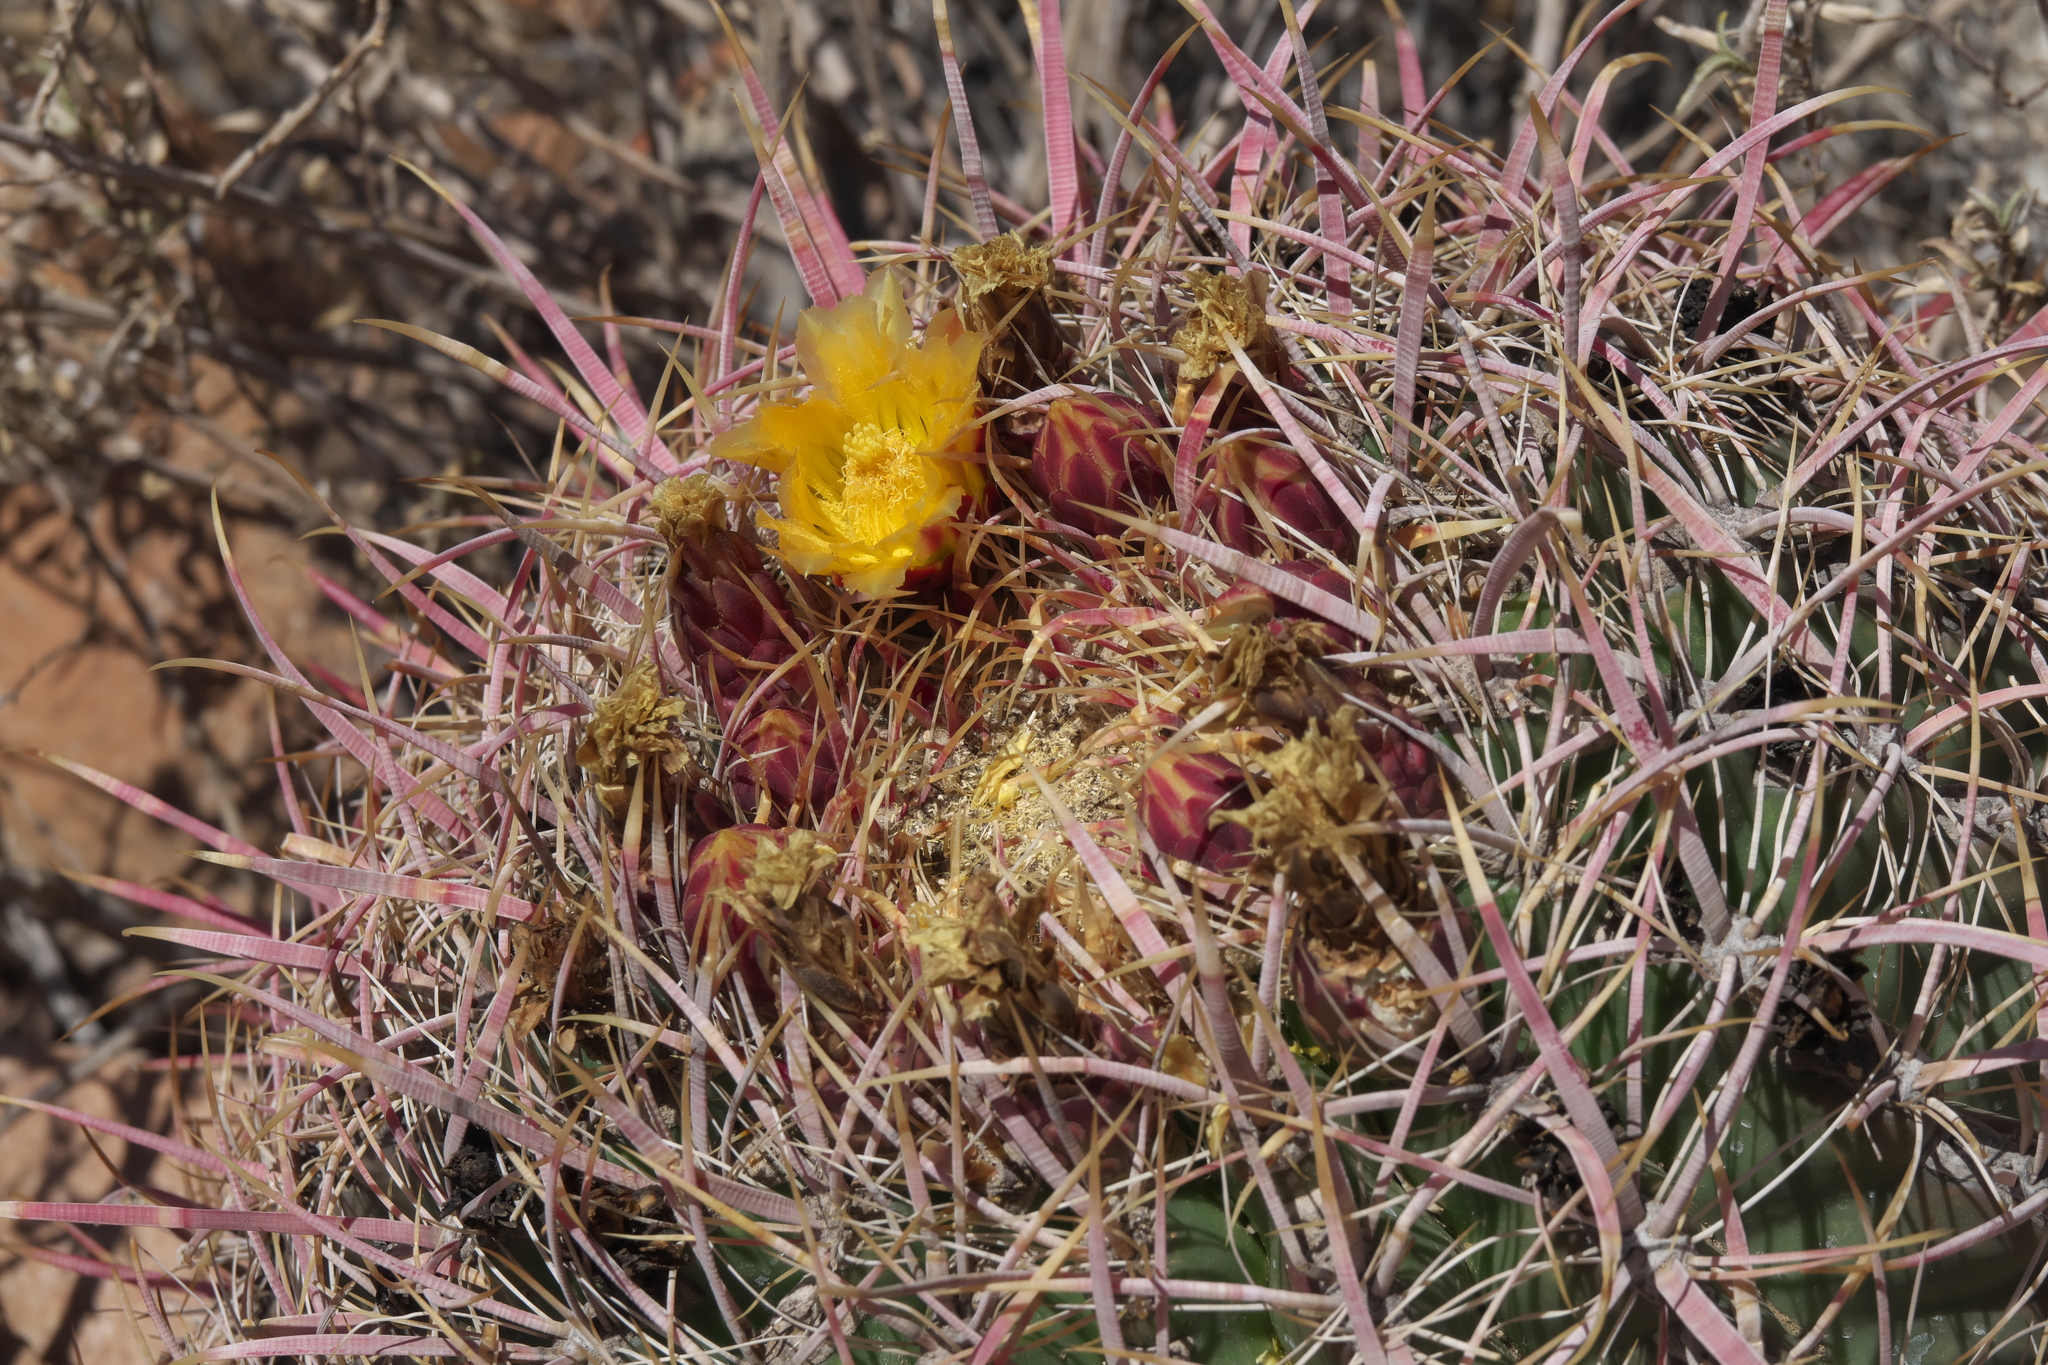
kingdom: Plantae
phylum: Tracheophyta
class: Magnoliopsida
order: Caryophyllales
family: Cactaceae
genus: Ferocactus
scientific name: Ferocactus cylindraceus
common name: California barrel cactus
